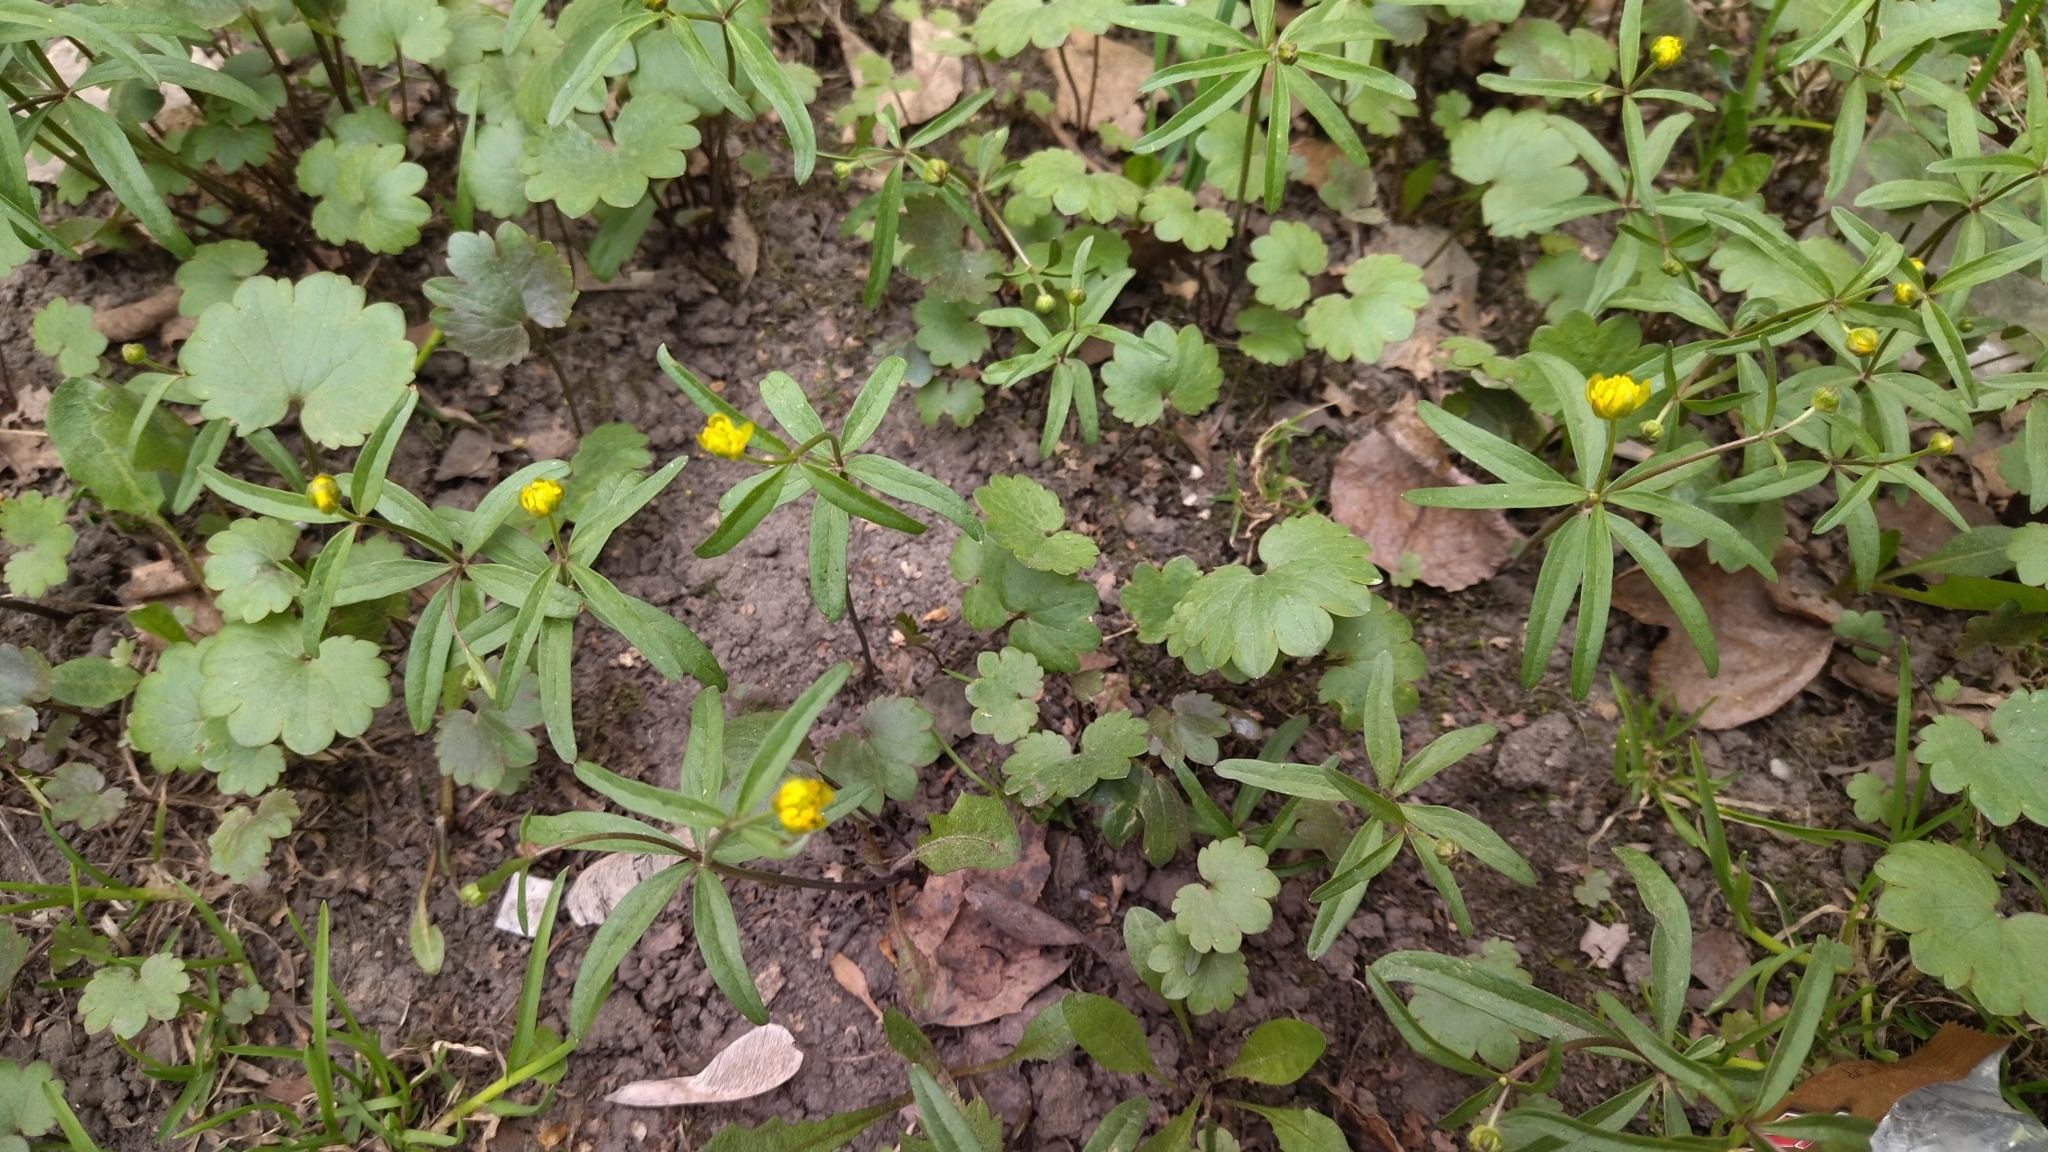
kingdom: Plantae
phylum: Tracheophyta
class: Magnoliopsida
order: Ranunculales
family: Ranunculaceae
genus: Ranunculus
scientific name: Ranunculus monophyllus
